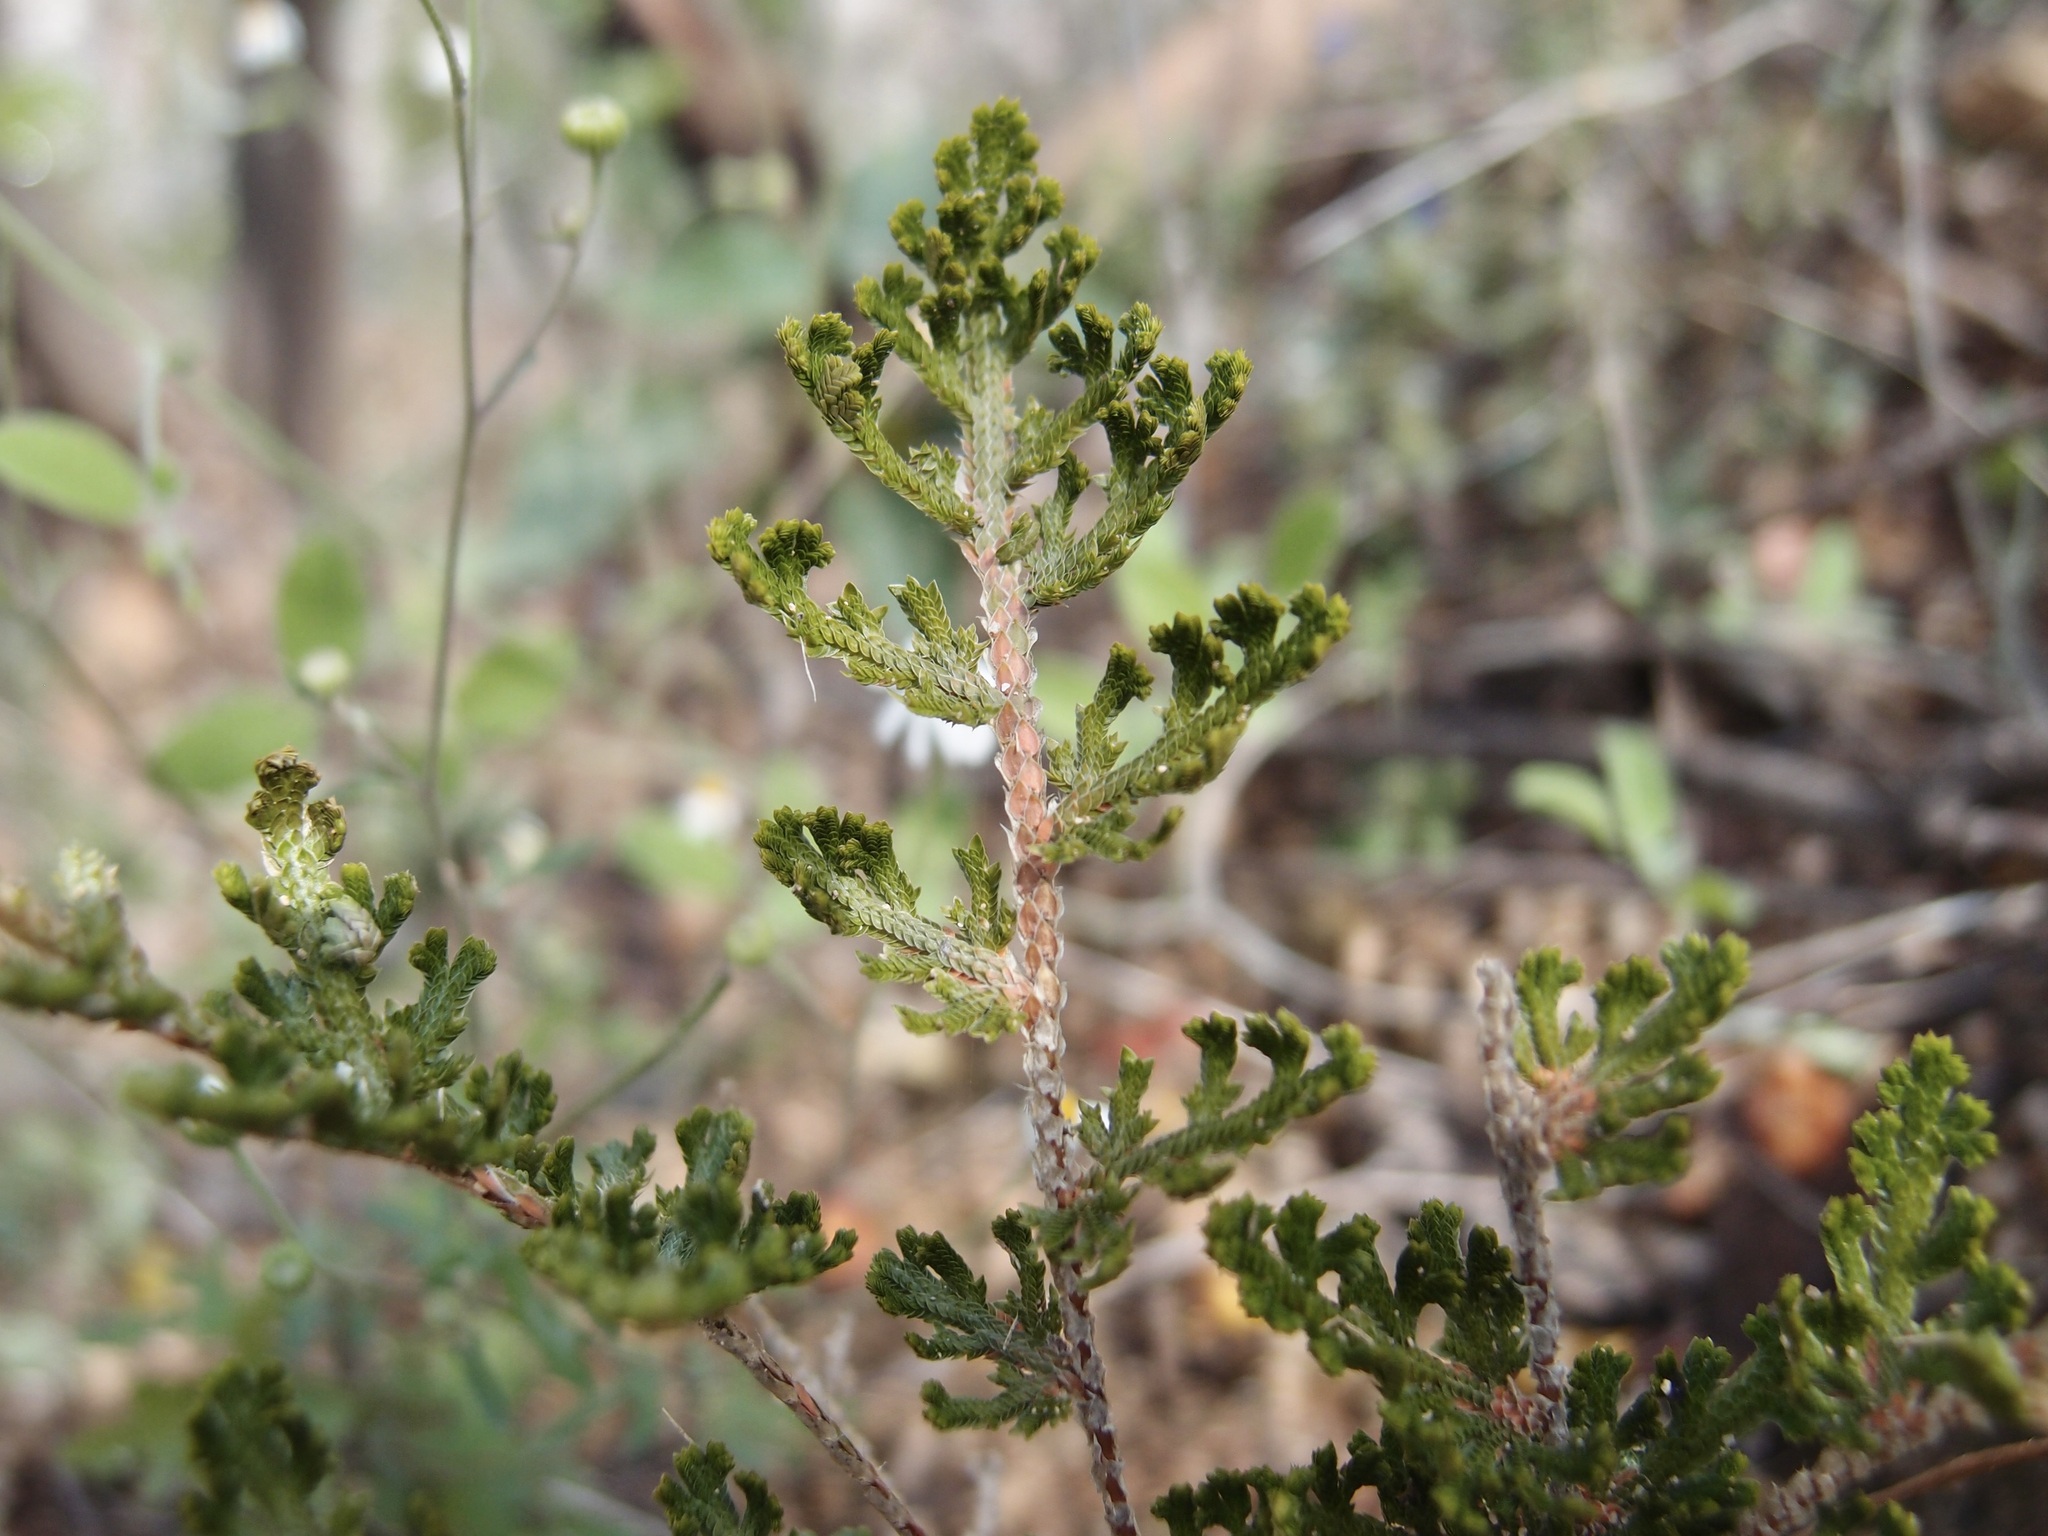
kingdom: Plantae
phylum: Tracheophyta
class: Lycopodiopsida
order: Selaginellales
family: Selaginellaceae
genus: Selaginella
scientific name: Selaginella pallescens
